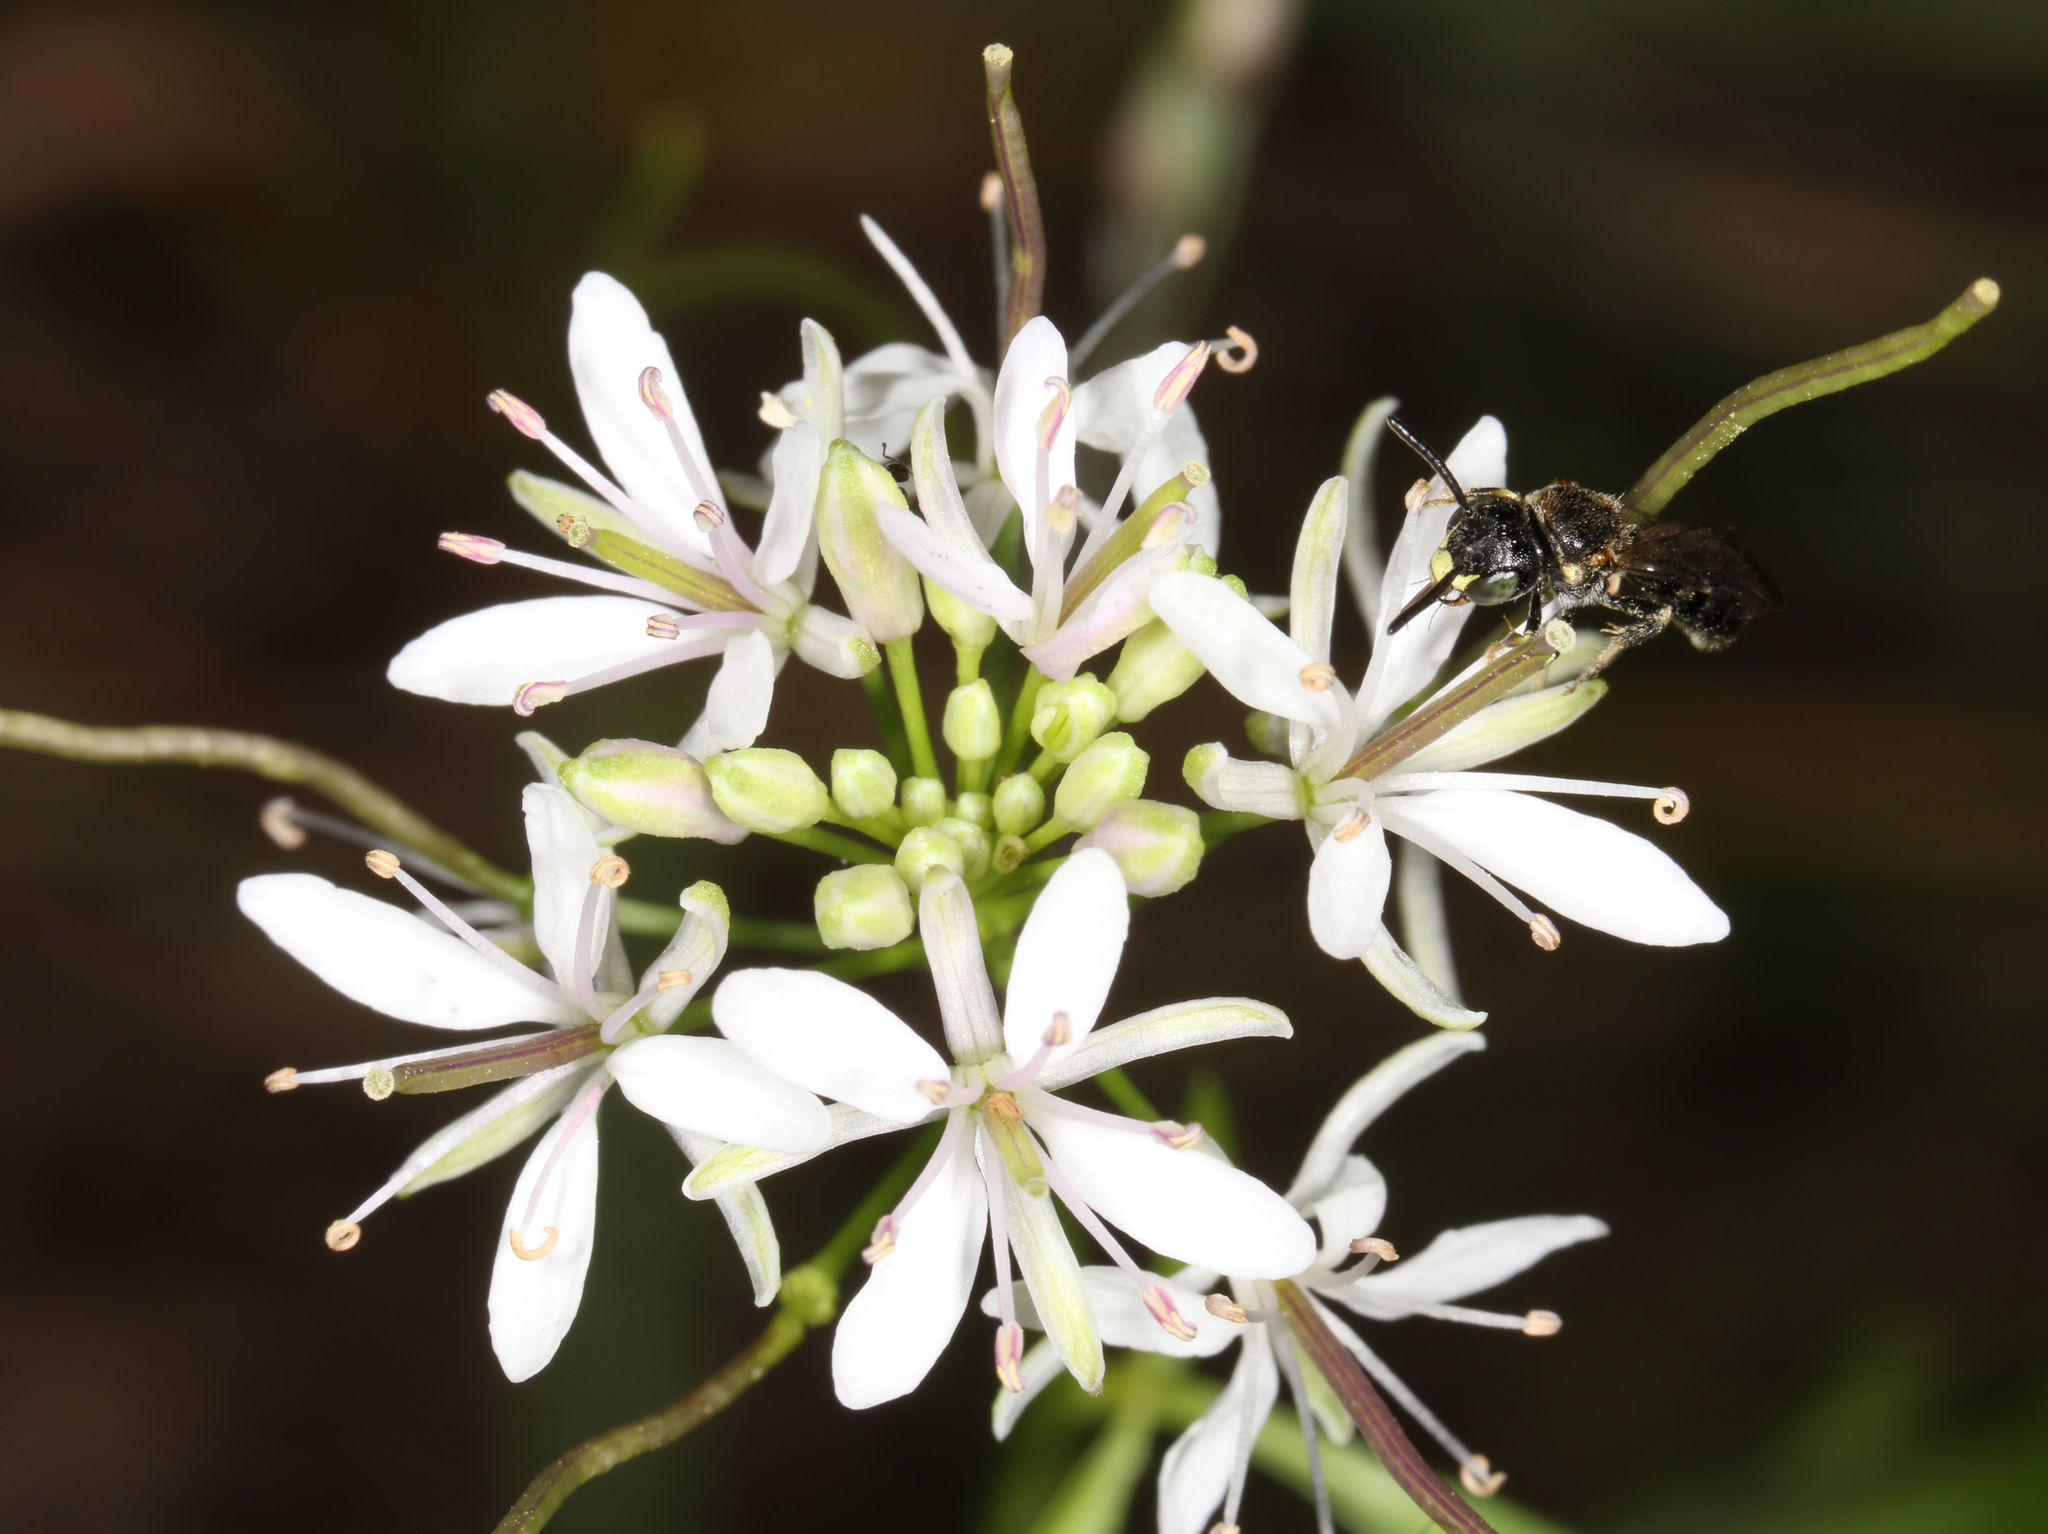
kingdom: Plantae
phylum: Tracheophyta
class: Magnoliopsida
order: Brassicales
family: Brassicaceae
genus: Thelypodium
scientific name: Thelypodium wrightii
